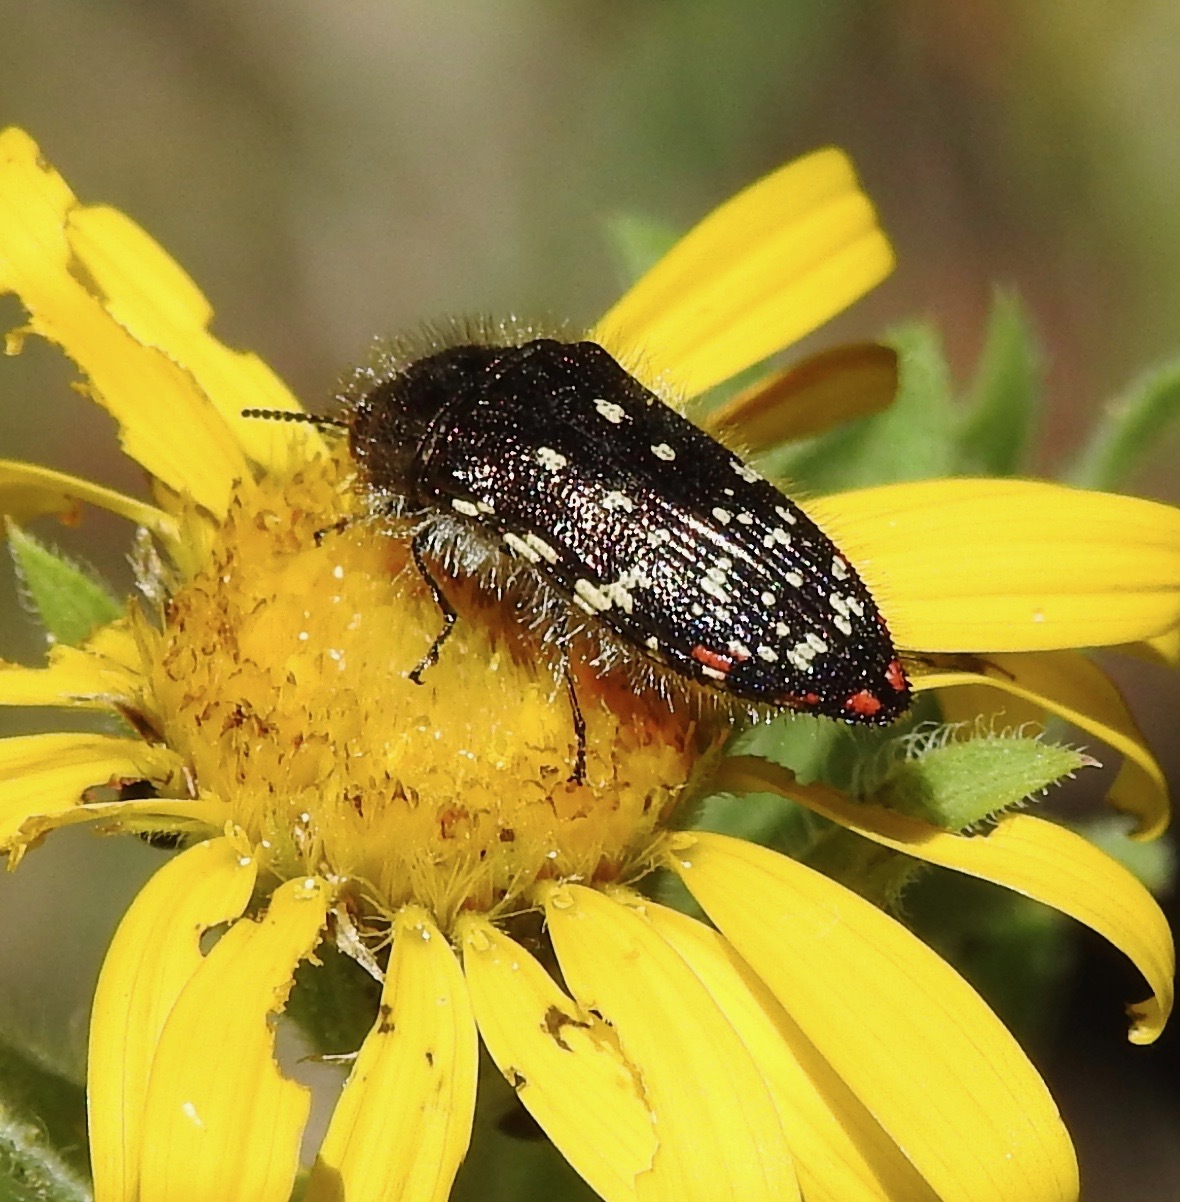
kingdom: Animalia
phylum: Arthropoda
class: Insecta
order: Coleoptera
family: Buprestidae
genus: Acmaeodera
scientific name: Acmaeodera rubronotata
